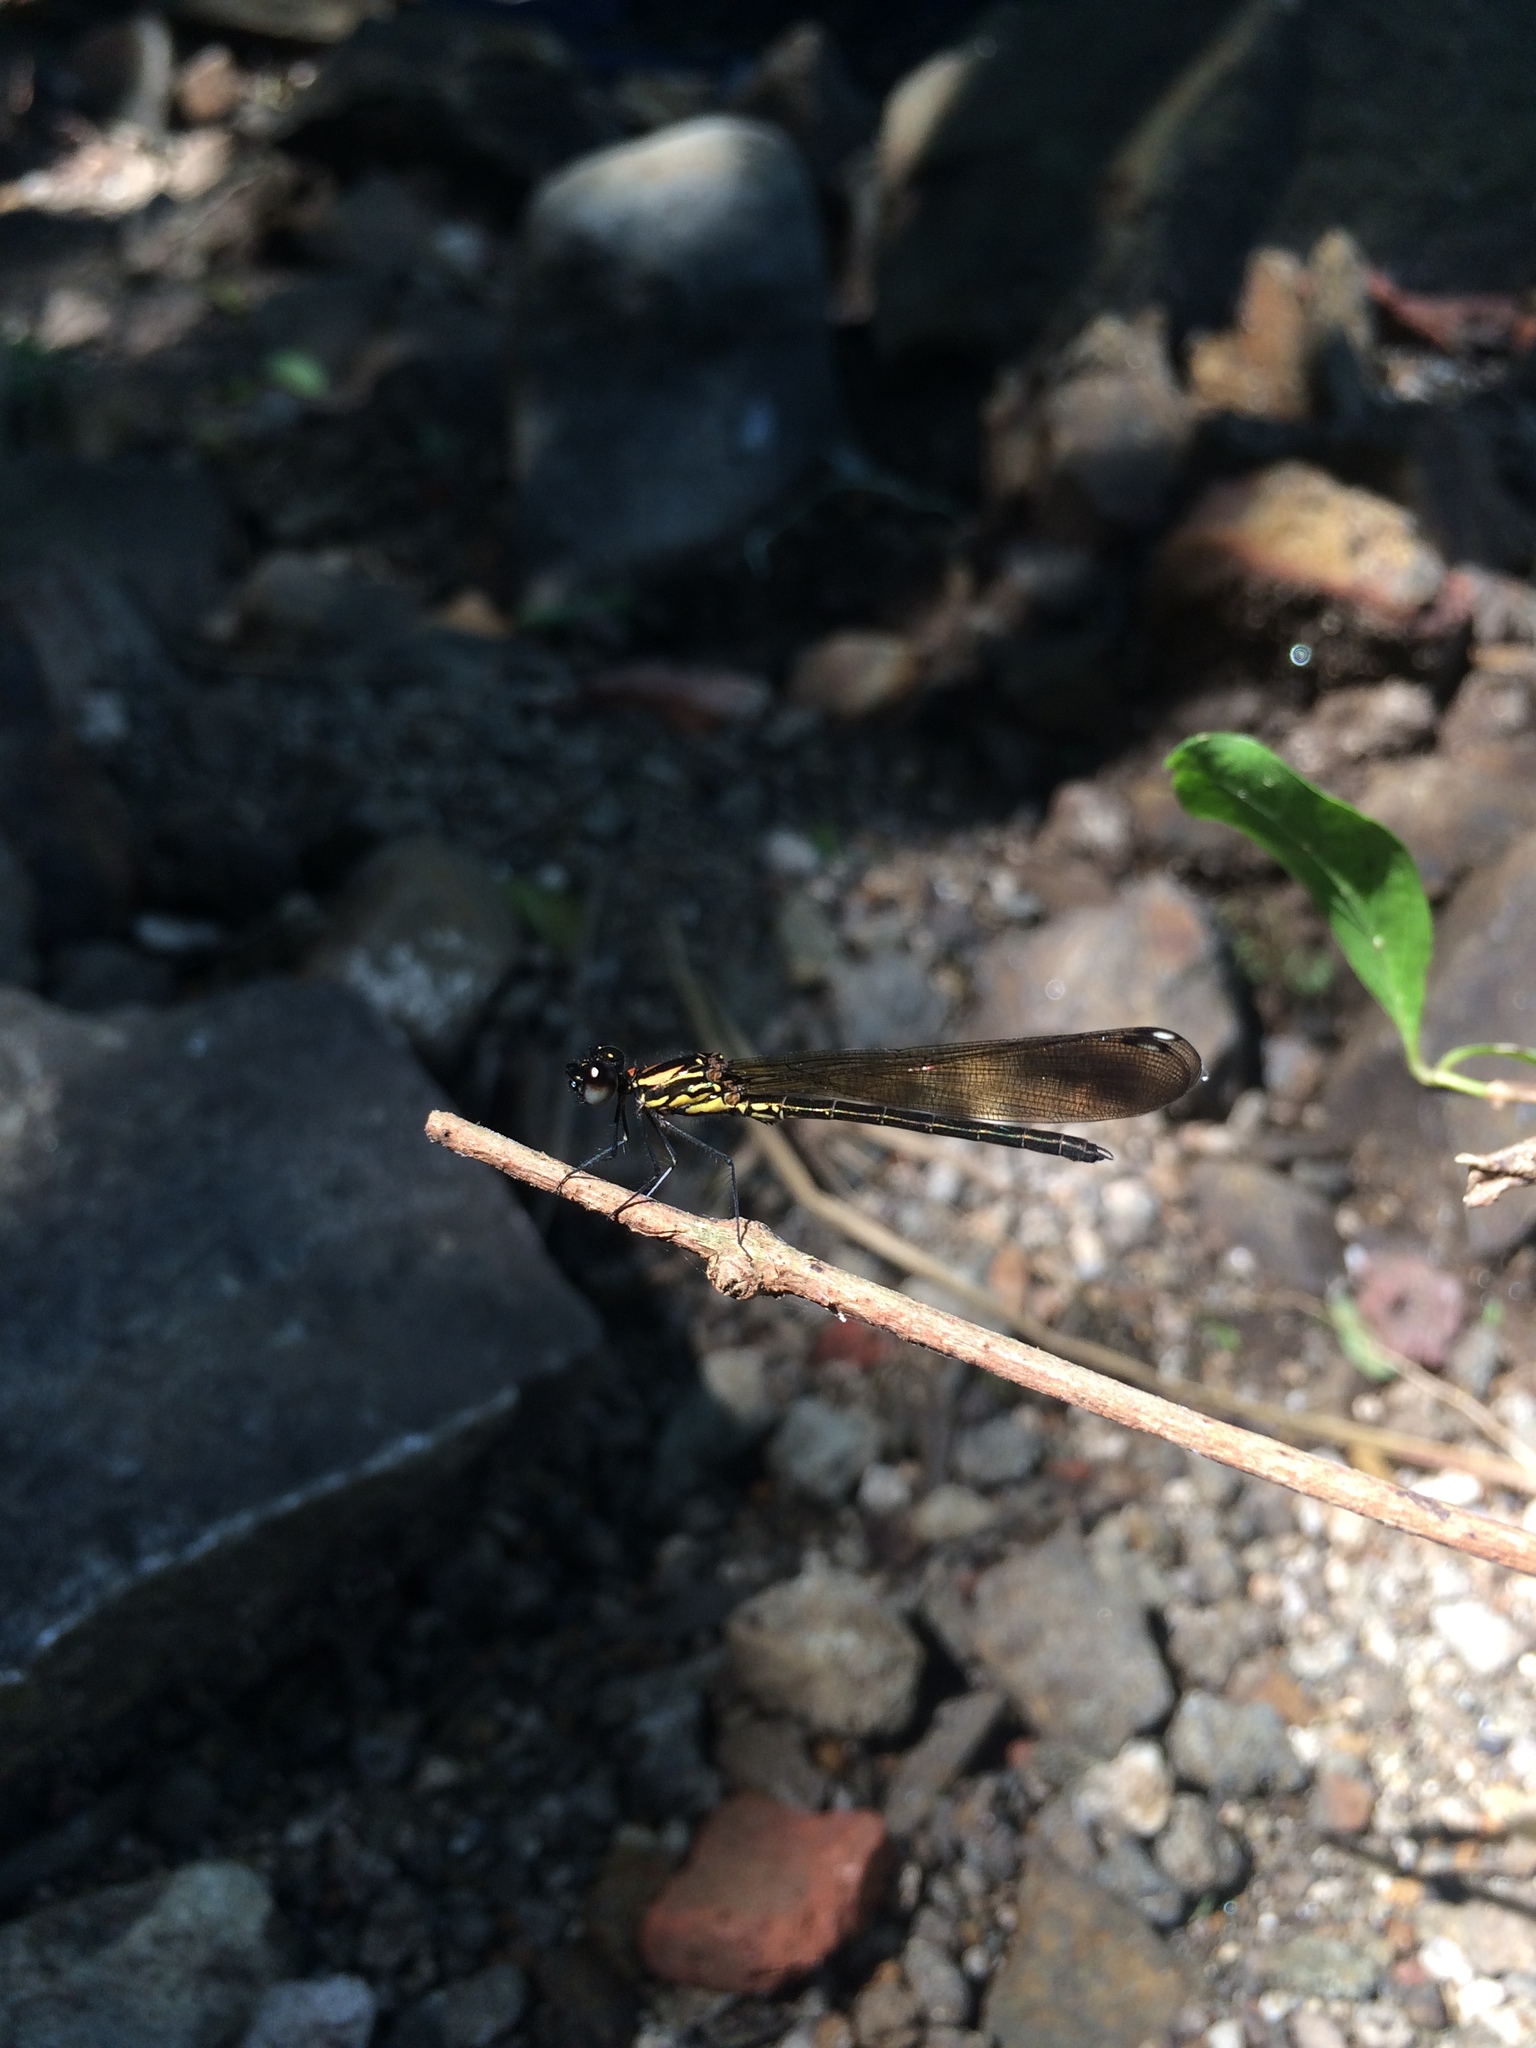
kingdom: Animalia
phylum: Arthropoda
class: Insecta
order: Odonata
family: Chlorocyphidae
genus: Heliocypha
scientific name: Heliocypha bisignata
